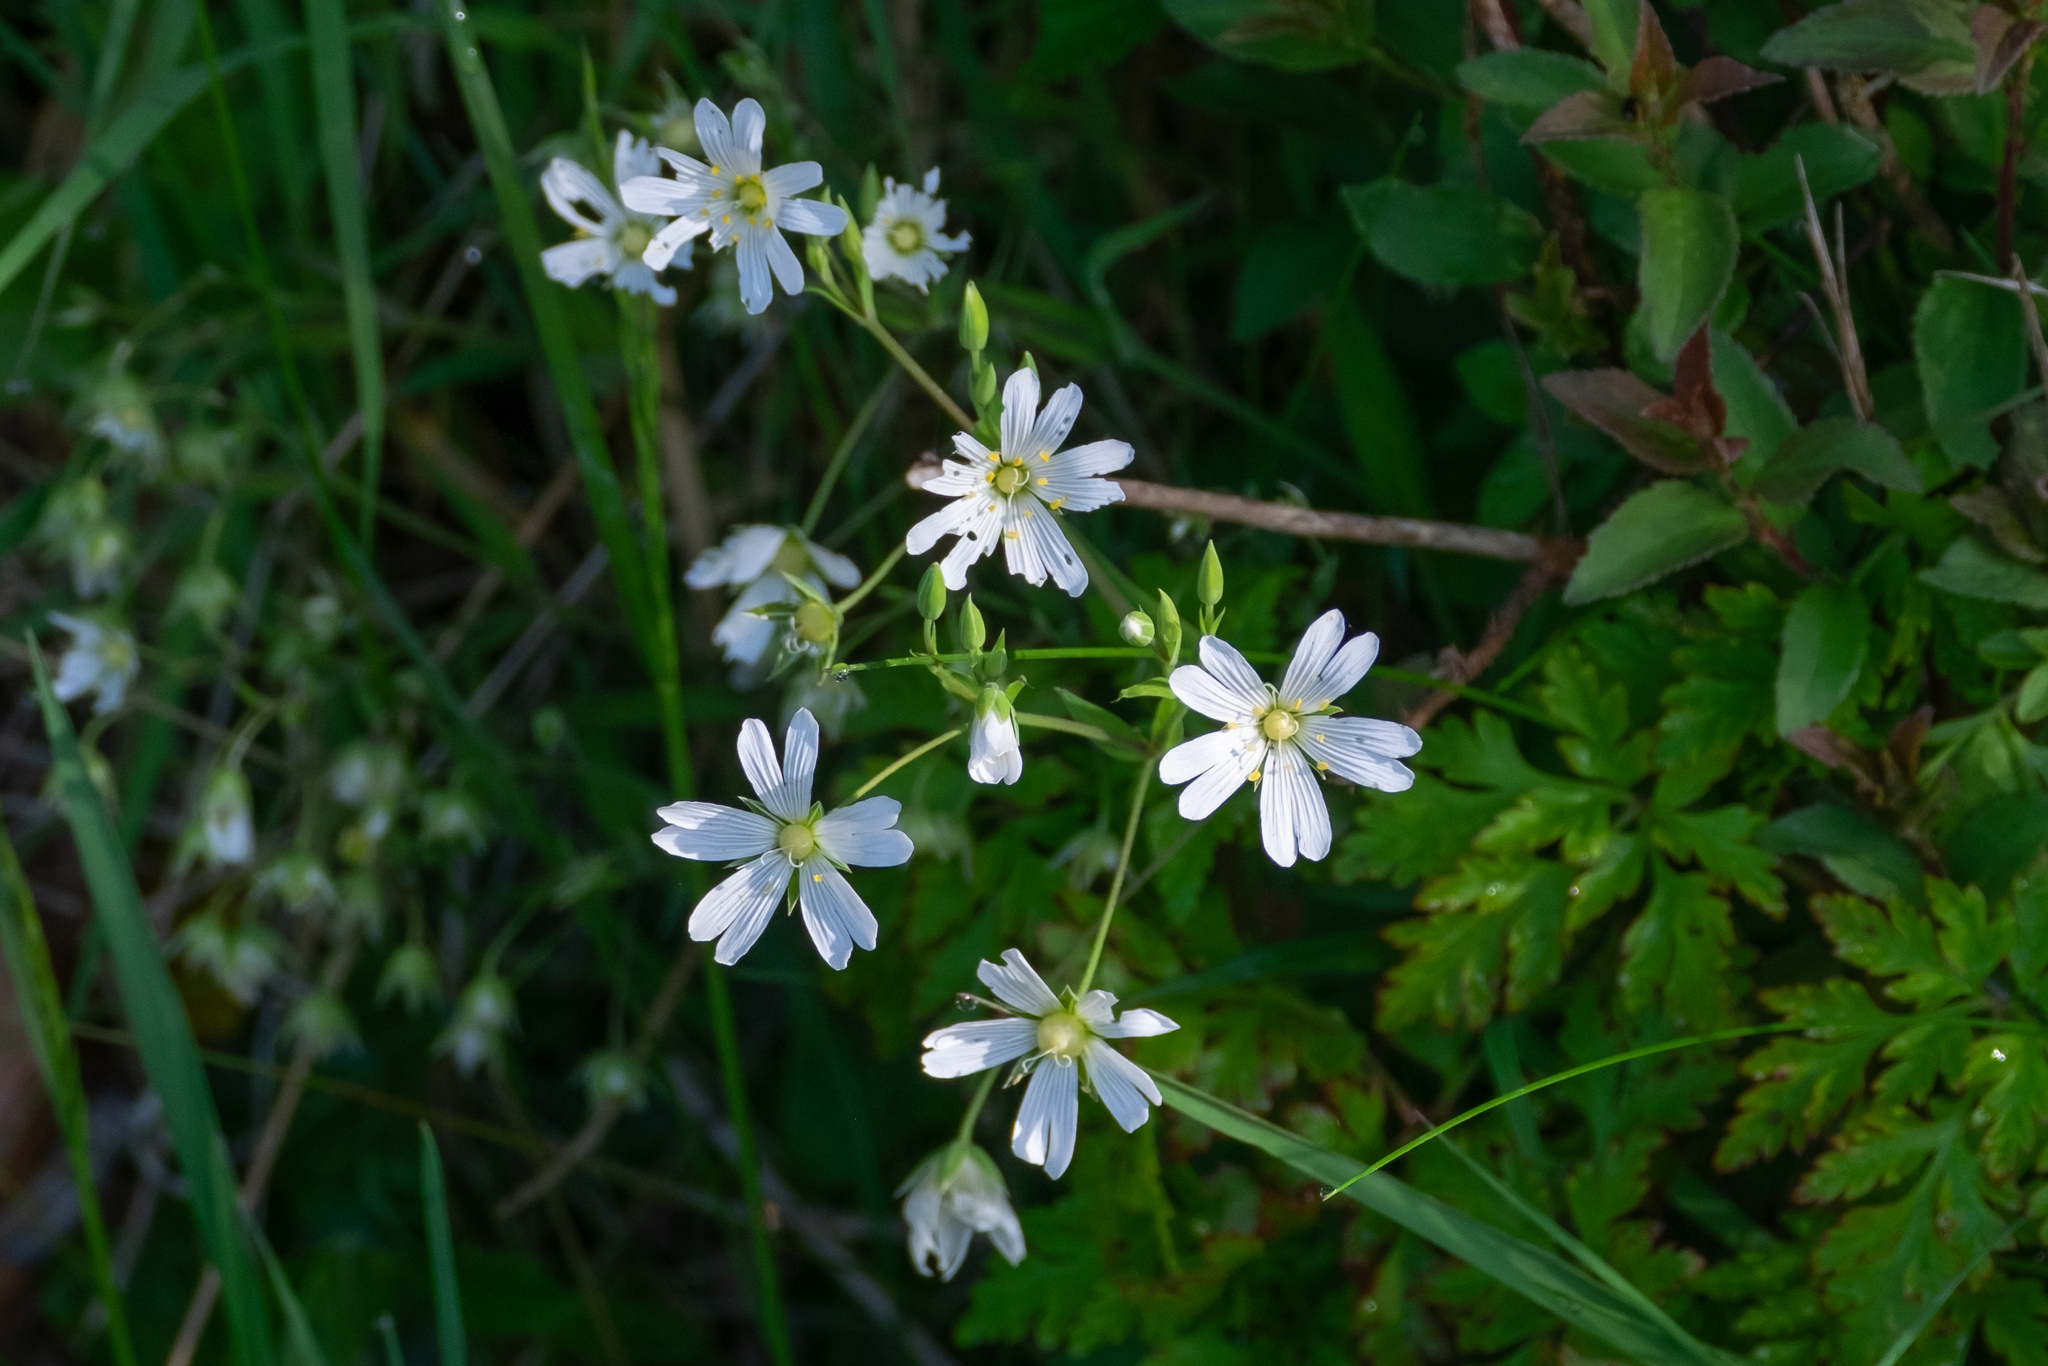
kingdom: Plantae
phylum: Tracheophyta
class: Magnoliopsida
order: Caryophyllales
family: Caryophyllaceae
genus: Rabelera
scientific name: Rabelera holostea
